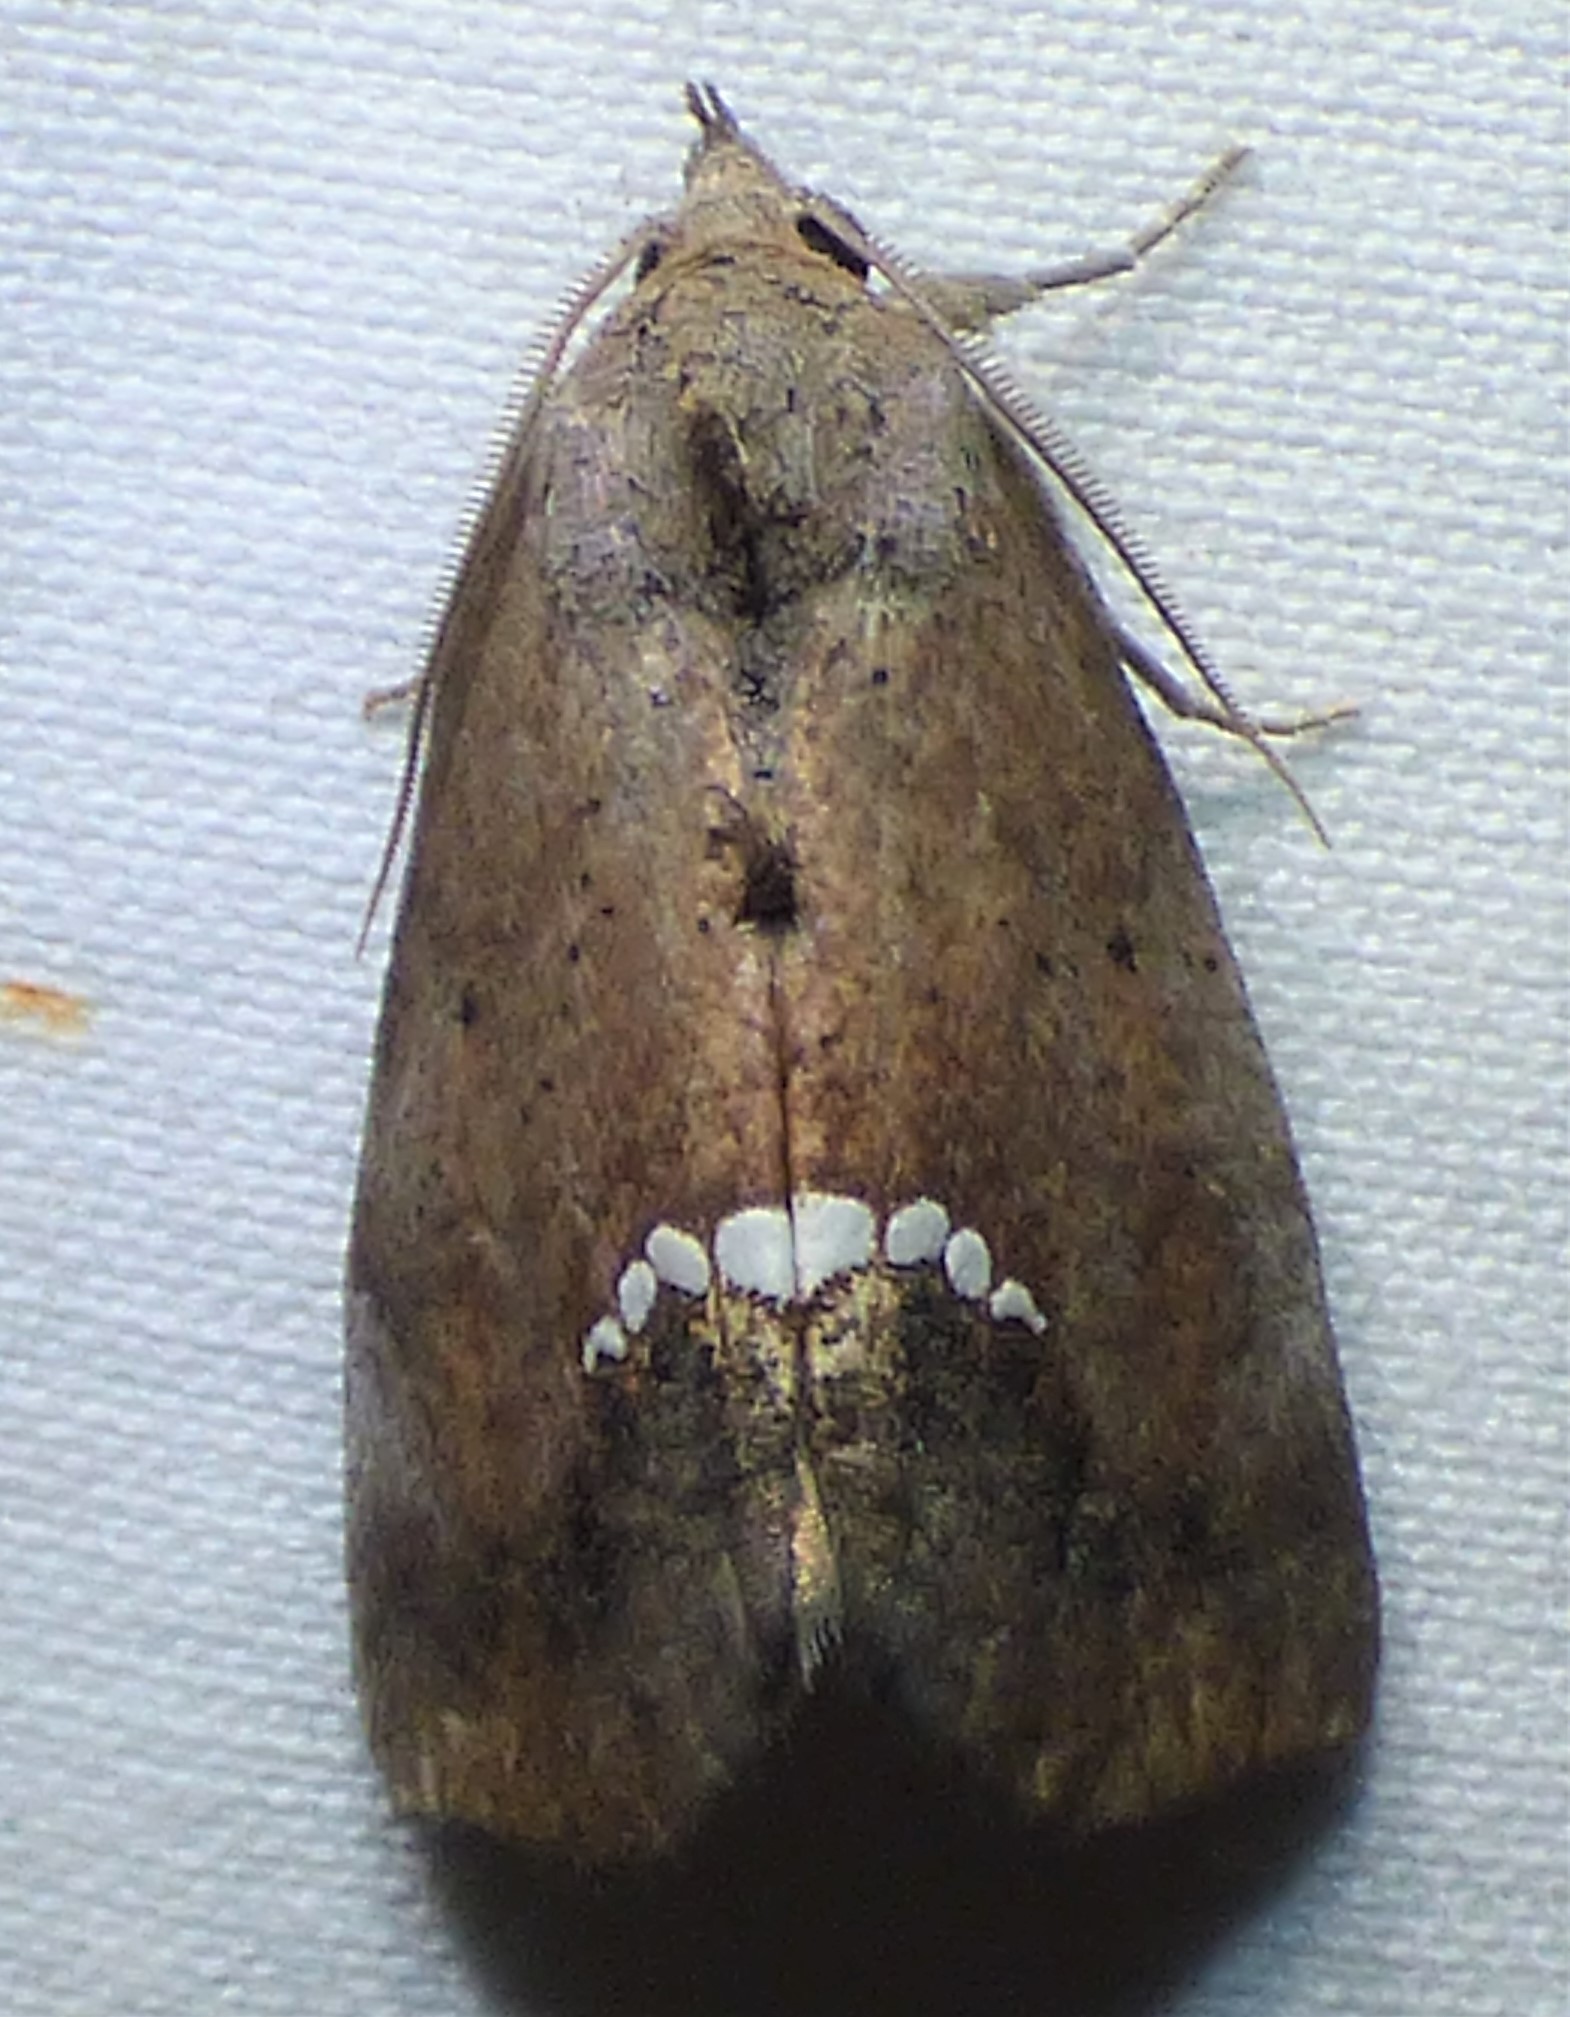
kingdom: Animalia
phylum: Arthropoda
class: Insecta
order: Lepidoptera
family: Erebidae
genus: Hypsoropha
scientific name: Hypsoropha hormos
